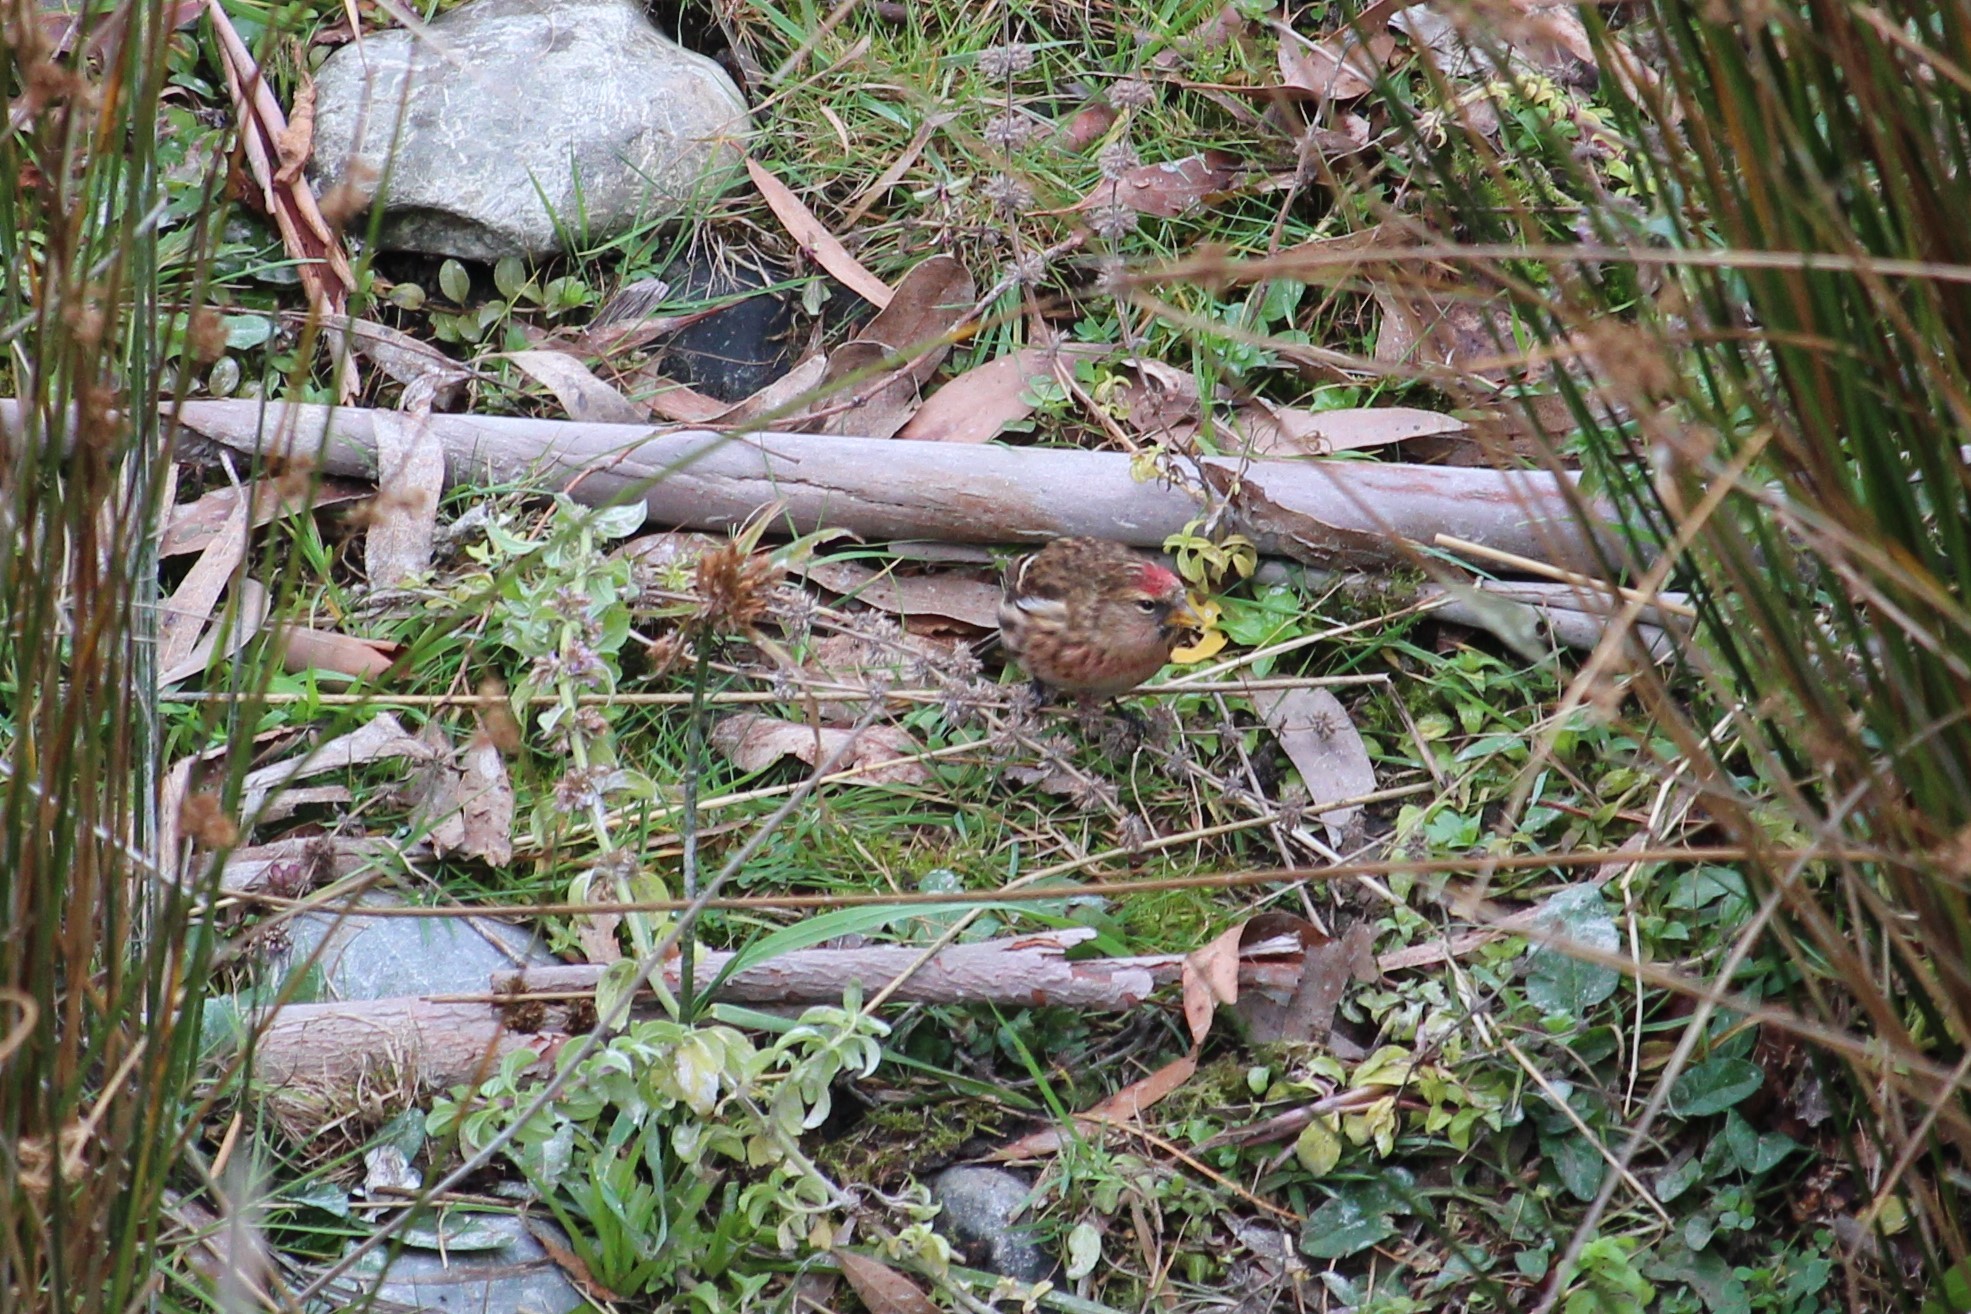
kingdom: Animalia
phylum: Chordata
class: Aves
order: Passeriformes
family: Fringillidae
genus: Acanthis
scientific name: Acanthis flammea
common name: Common redpoll
